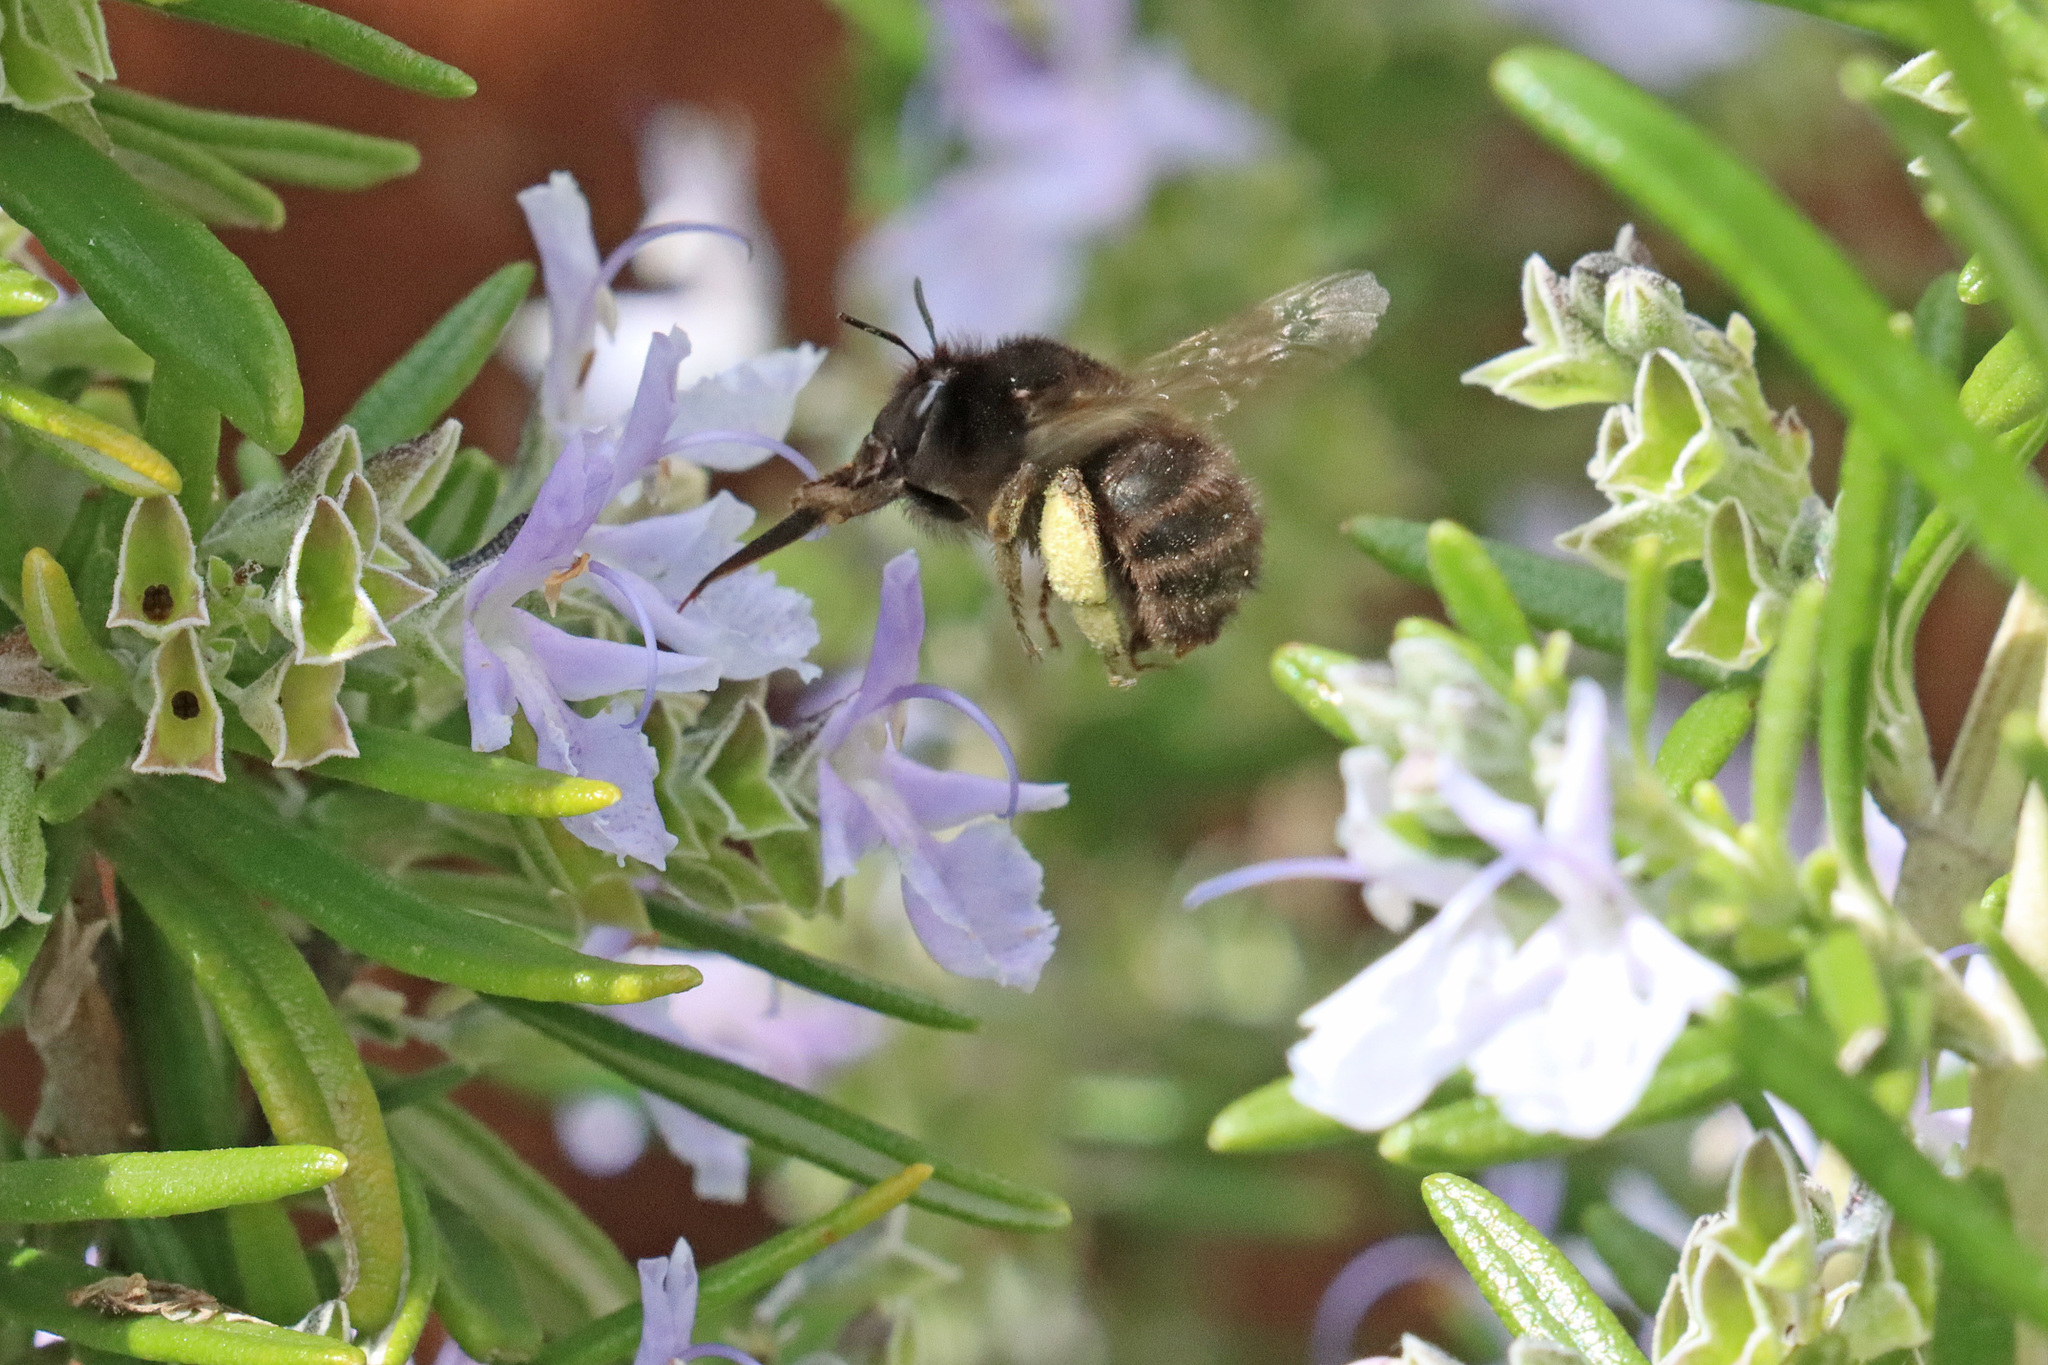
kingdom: Animalia
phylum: Arthropoda
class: Insecta
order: Hymenoptera
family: Apidae
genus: Anthophora
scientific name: Anthophora plumipes
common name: Hairy-footed flower bee
